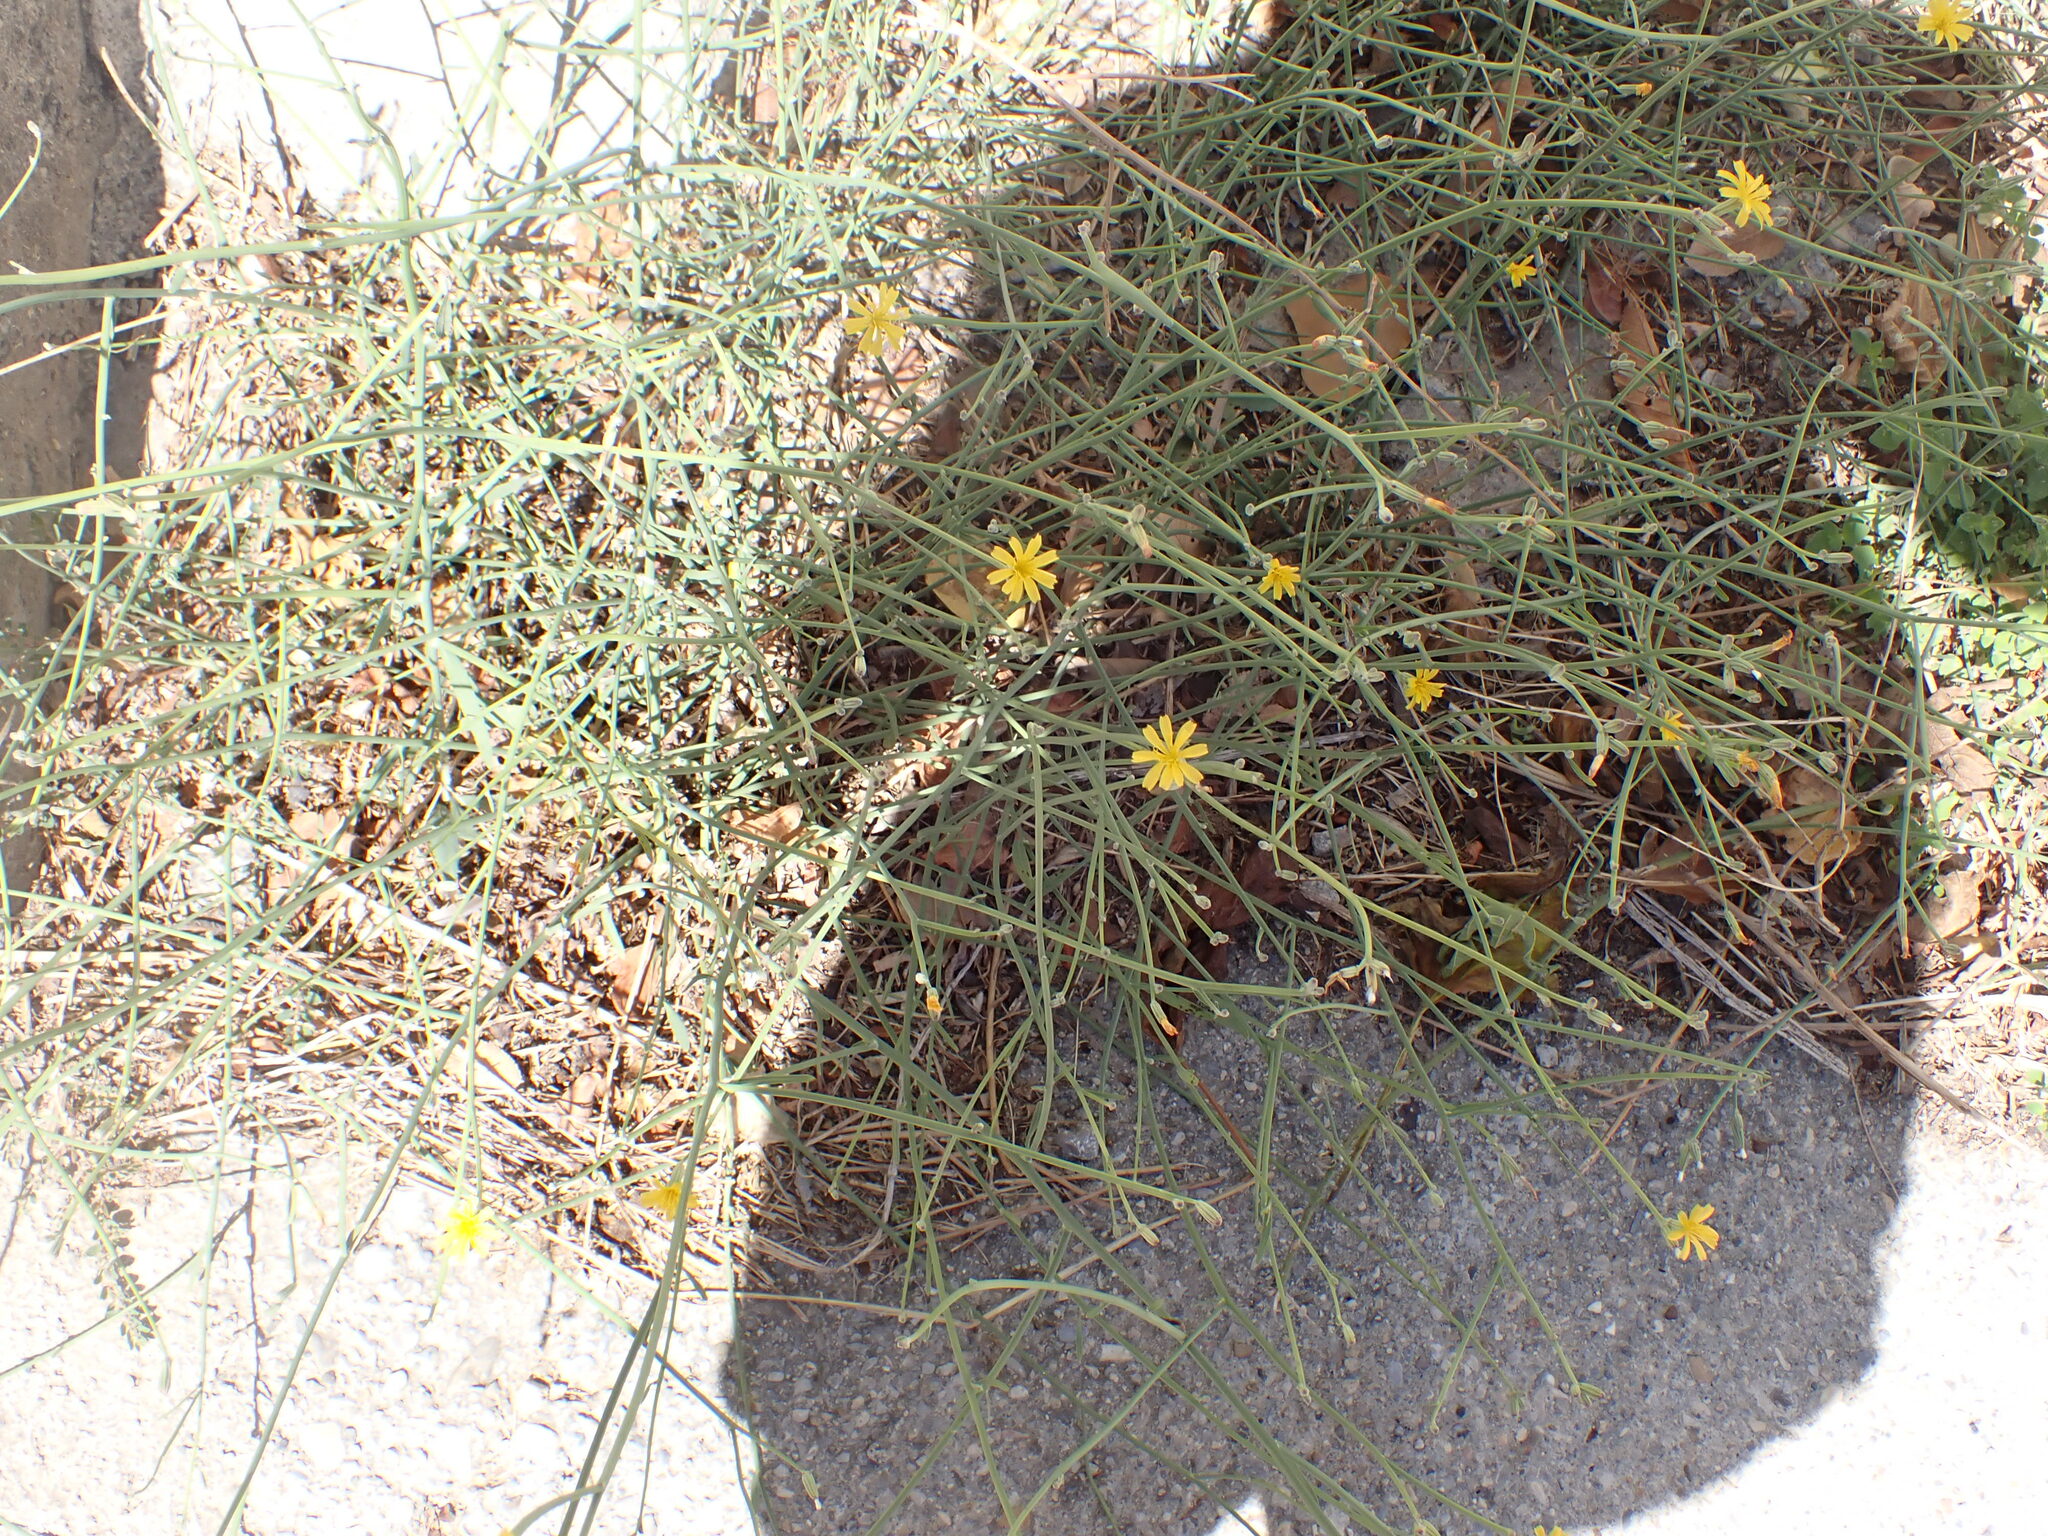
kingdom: Plantae
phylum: Tracheophyta
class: Magnoliopsida
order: Asterales
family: Asteraceae
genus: Chondrilla
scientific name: Chondrilla juncea
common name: Skeleton weed
